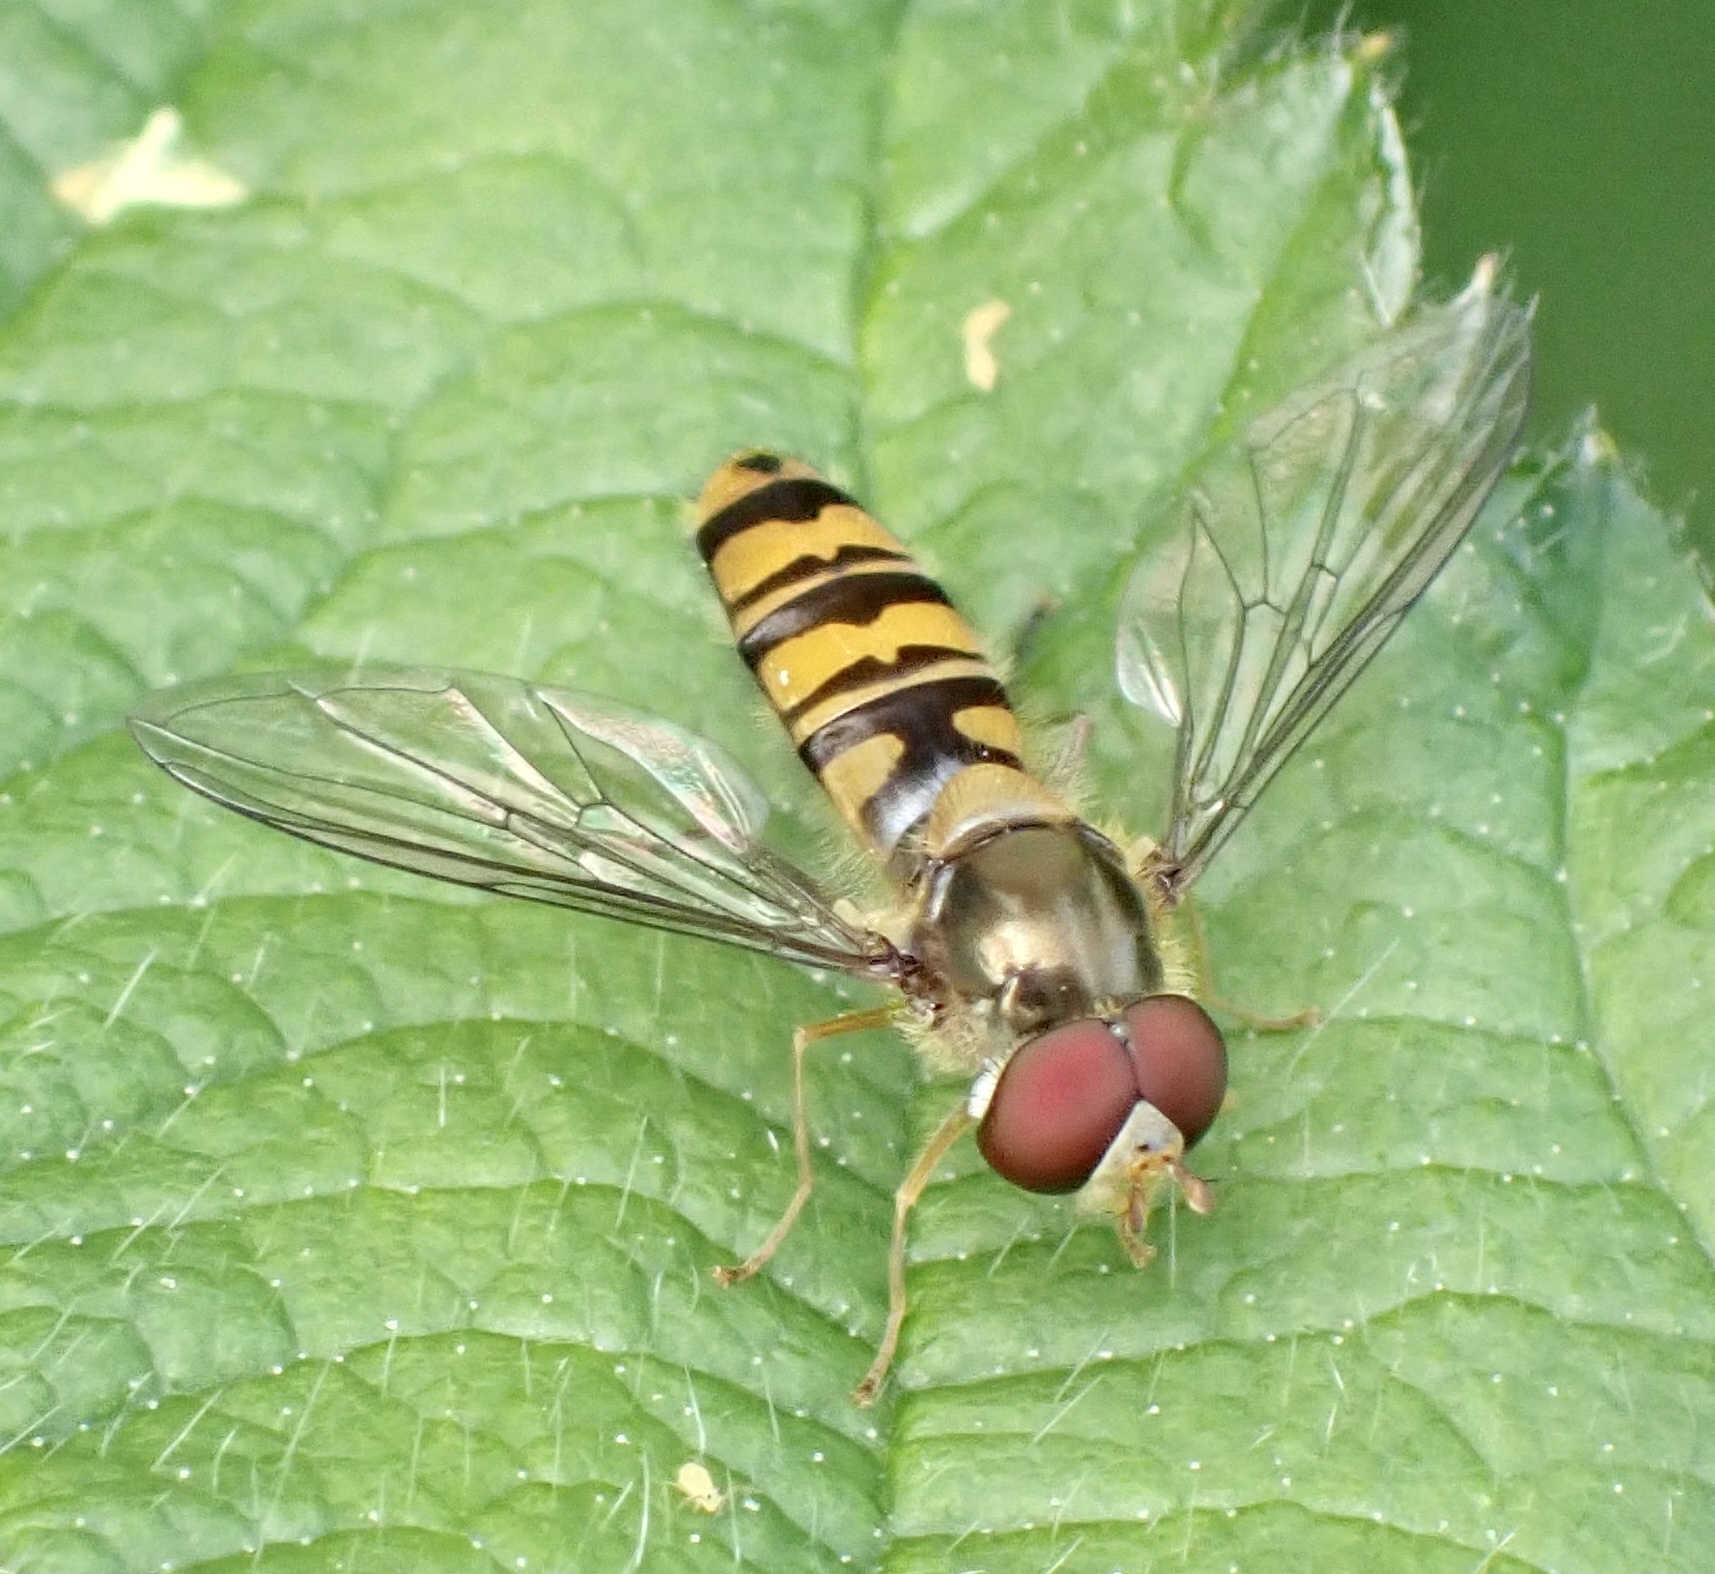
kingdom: Animalia
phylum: Arthropoda
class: Insecta
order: Diptera
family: Syrphidae
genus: Episyrphus
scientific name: Episyrphus balteatus
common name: Marmalade hoverfly
